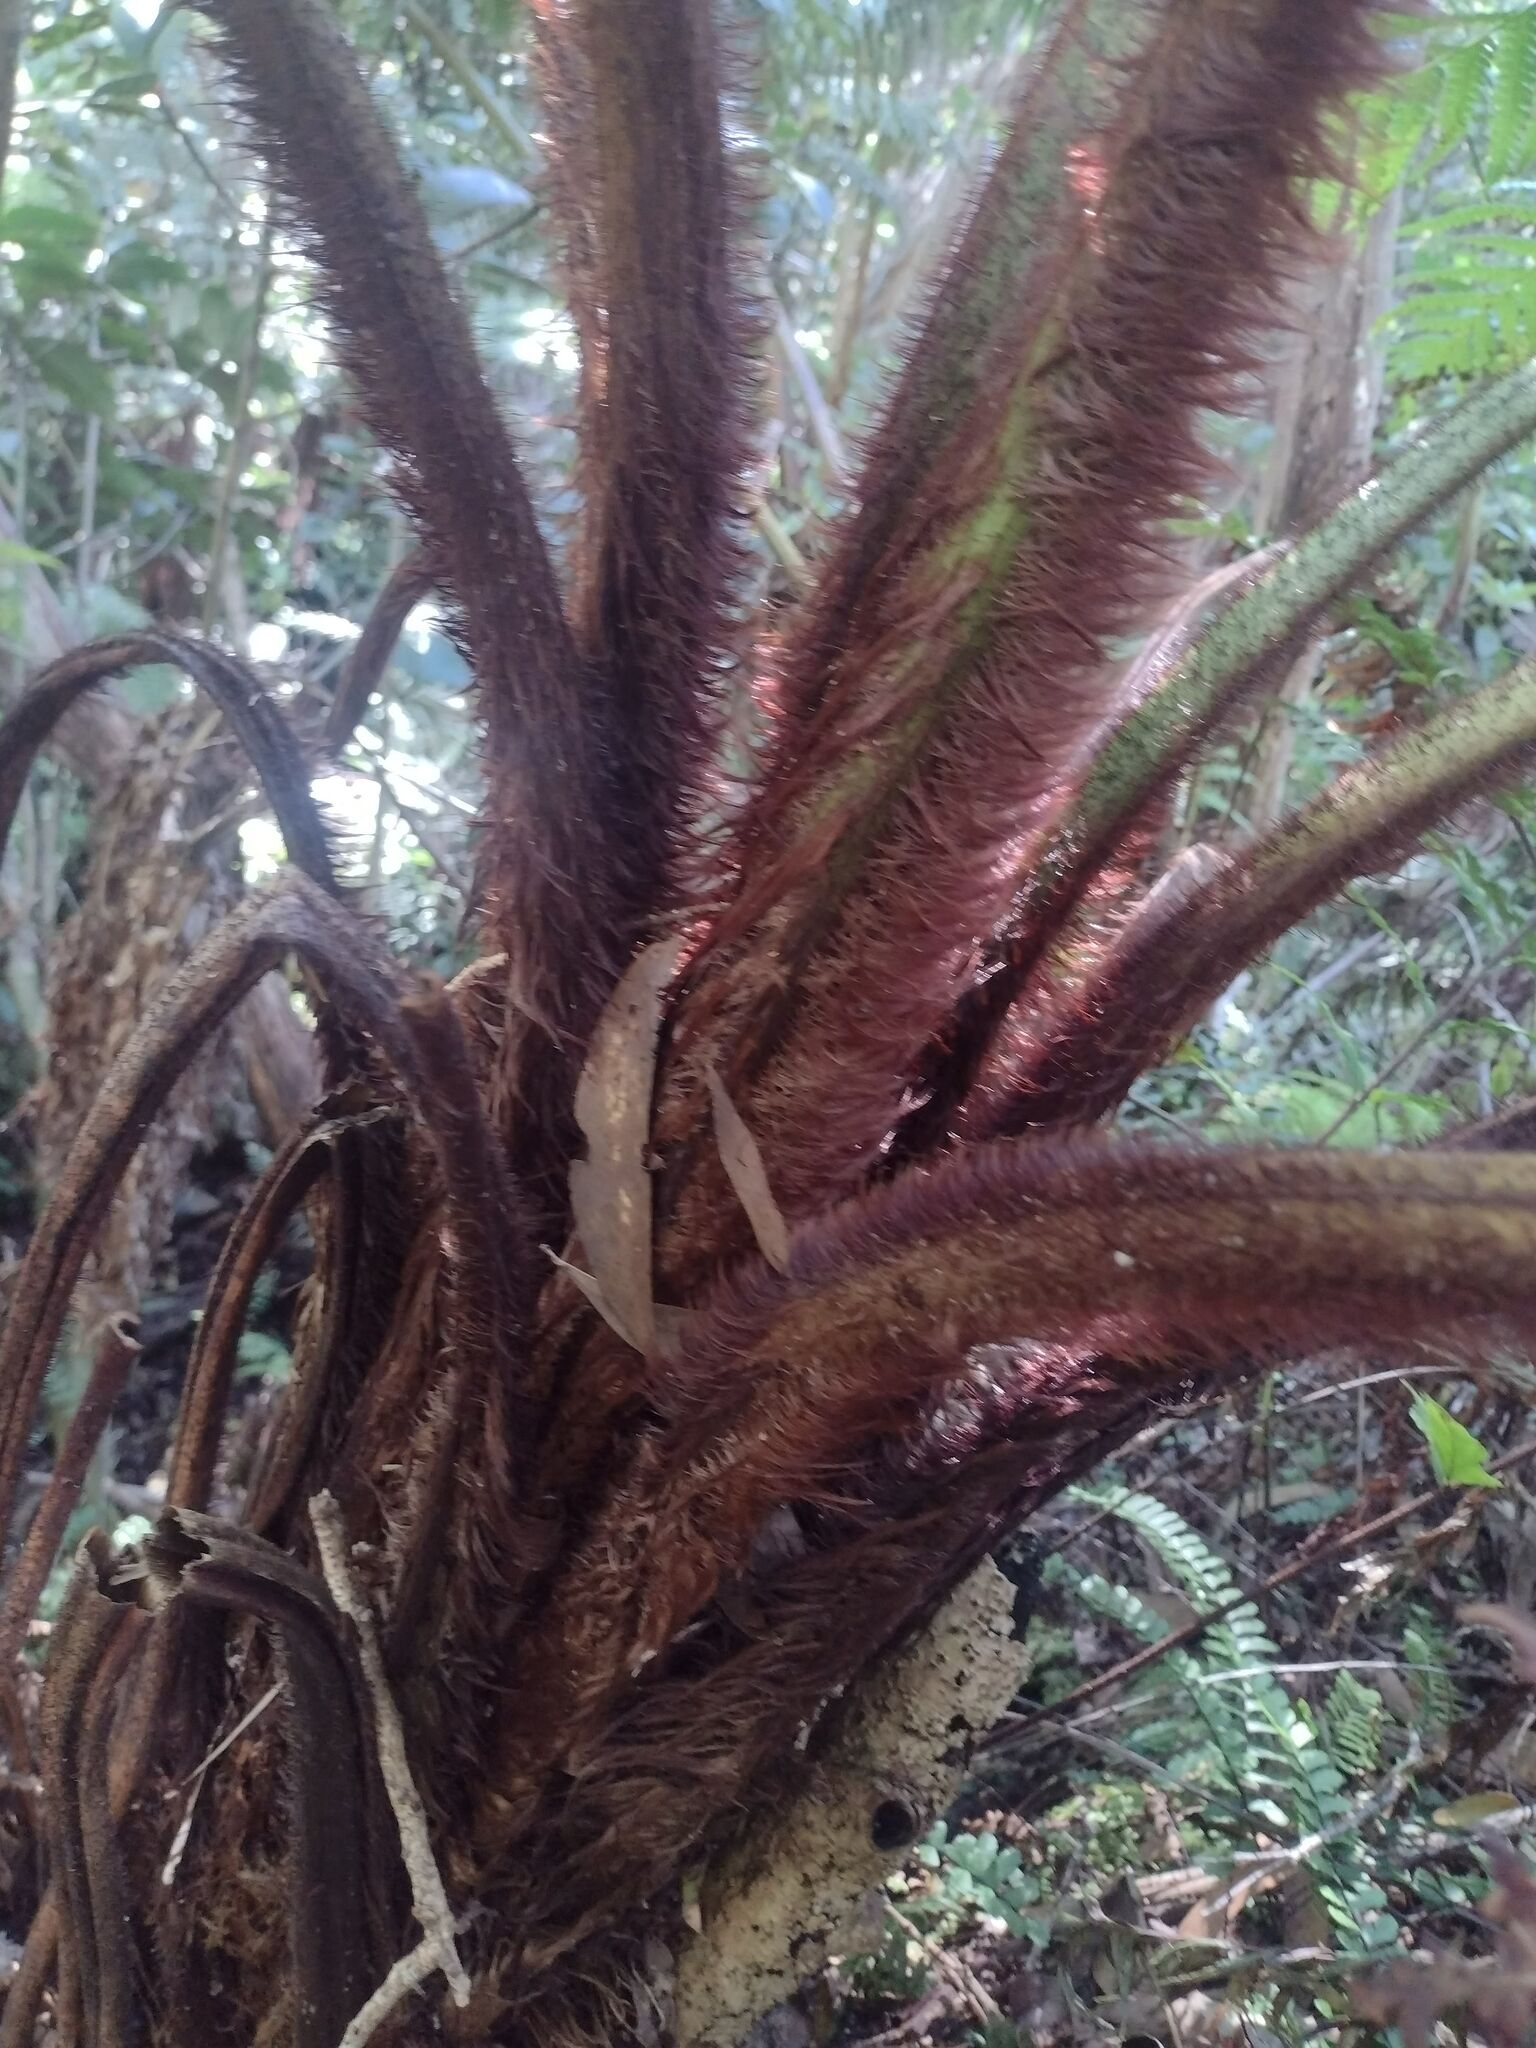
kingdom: Plantae
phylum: Tracheophyta
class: Polypodiopsida
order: Cyatheales
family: Cibotiaceae
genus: Cibotium
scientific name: Cibotium menziesii
